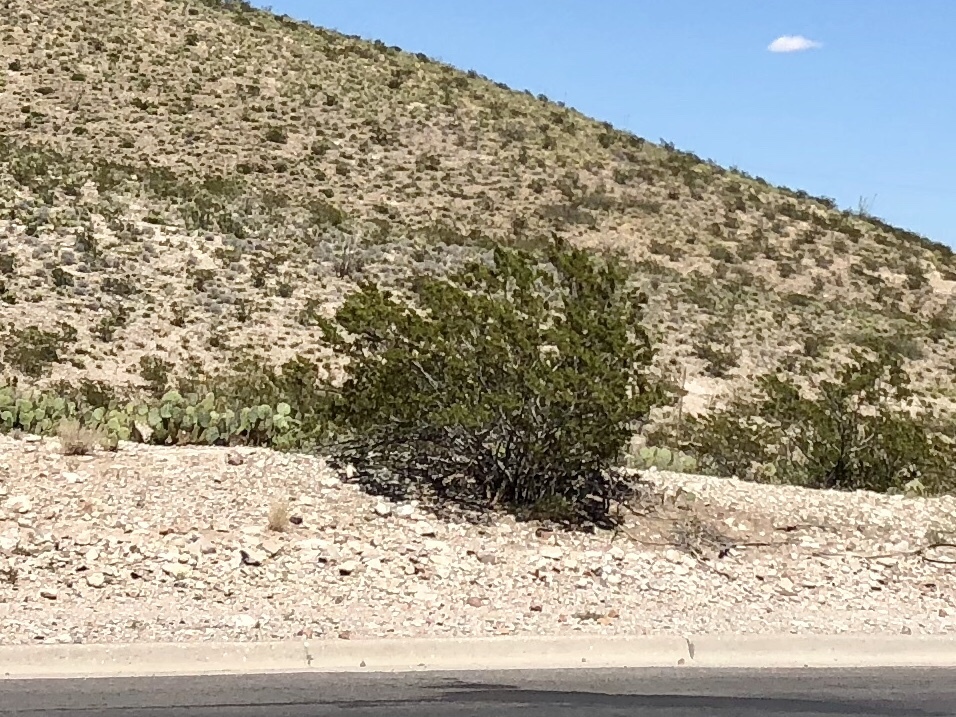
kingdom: Plantae
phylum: Tracheophyta
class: Magnoliopsida
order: Zygophyllales
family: Zygophyllaceae
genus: Larrea
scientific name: Larrea tridentata
